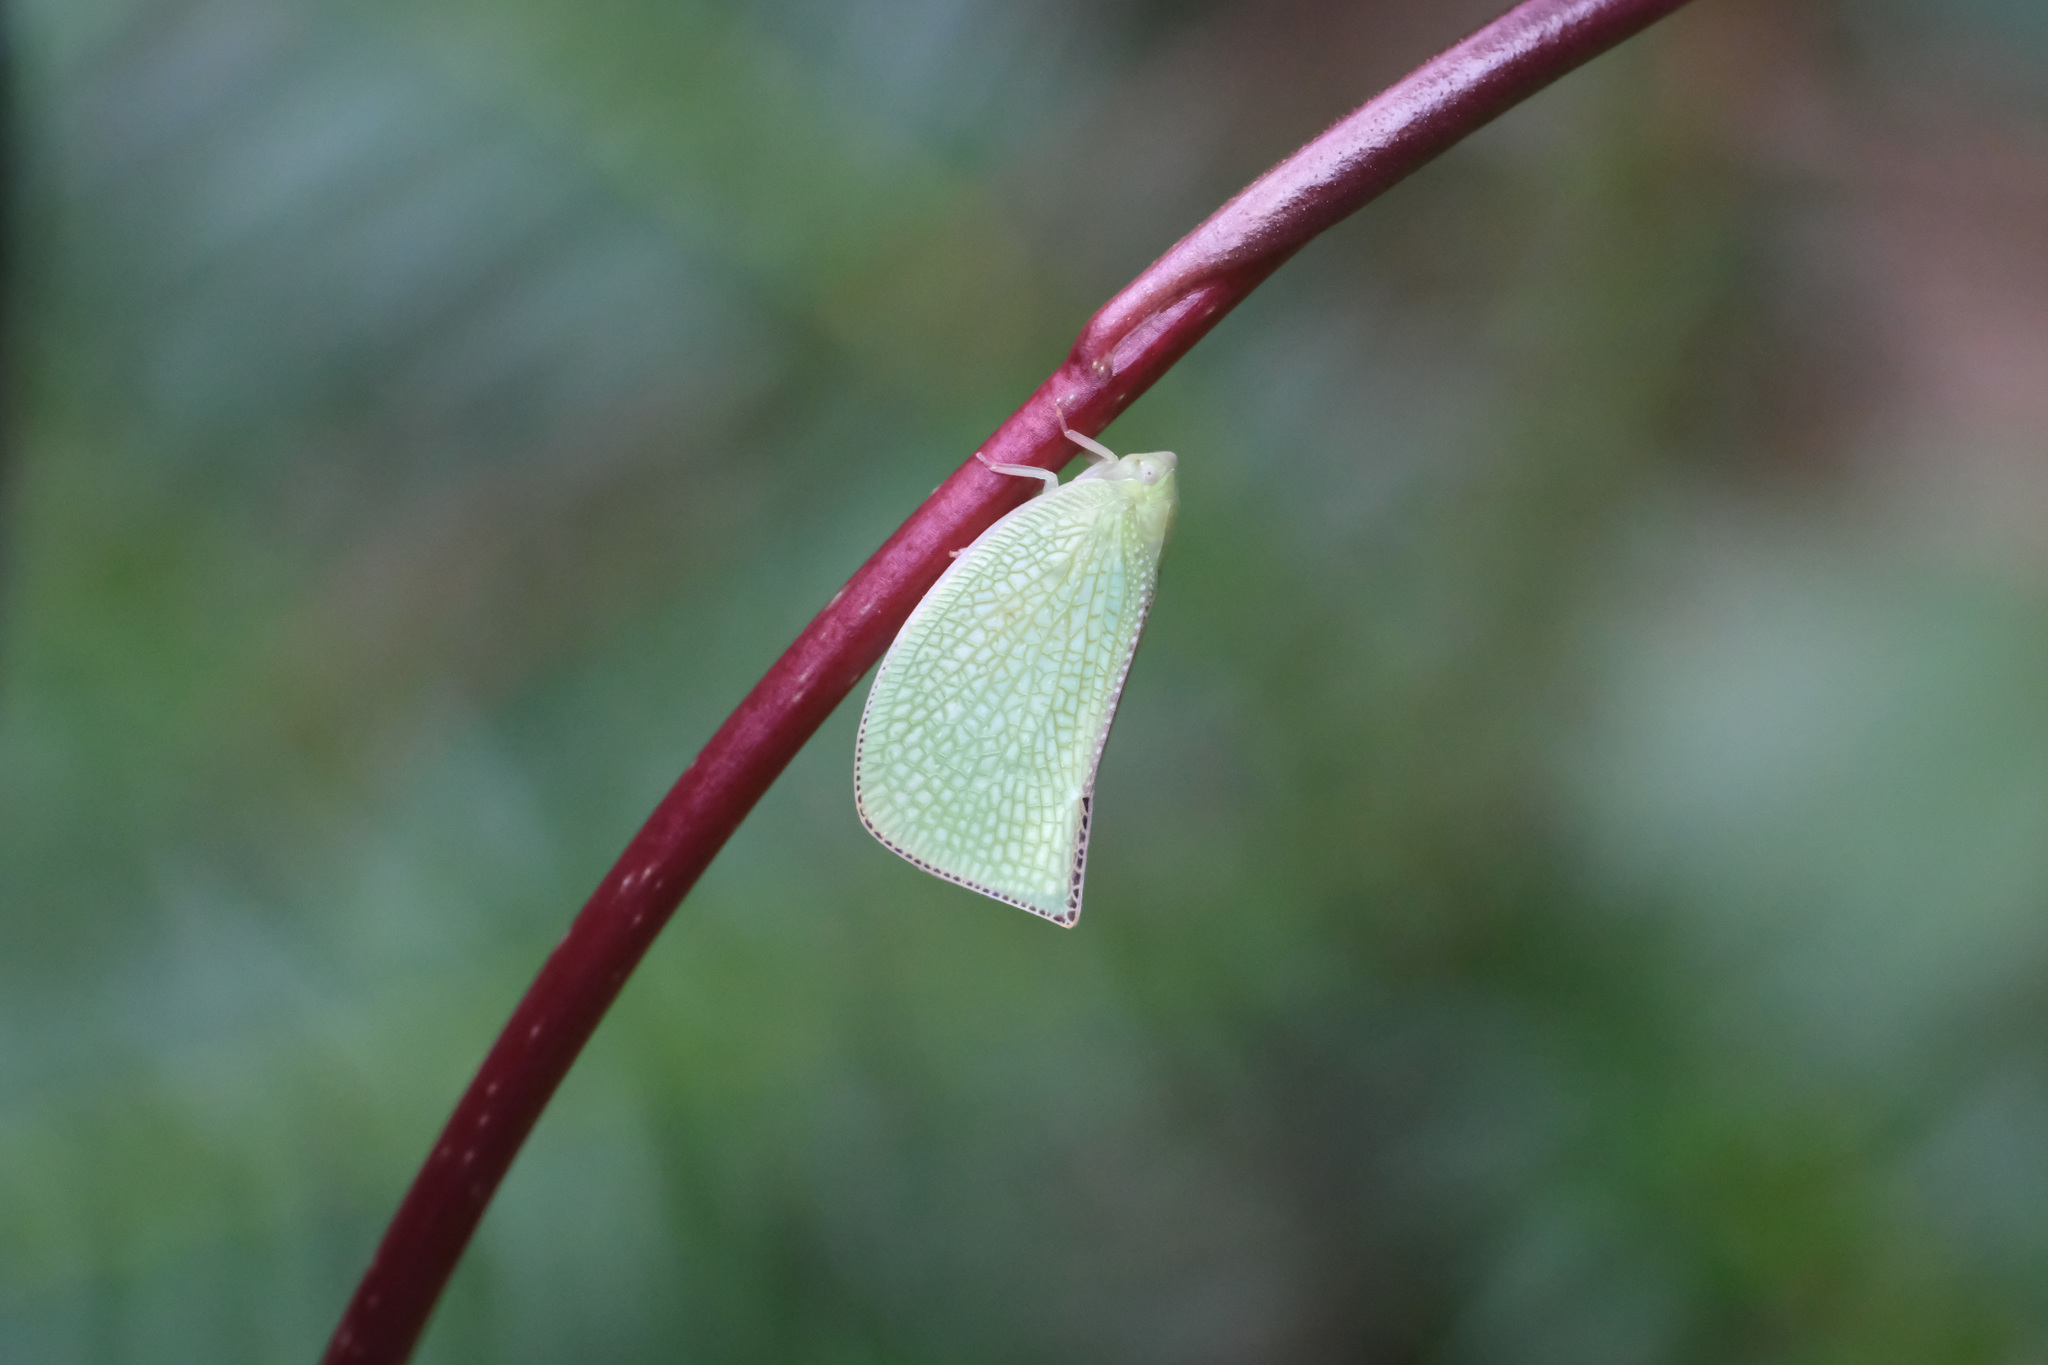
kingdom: Animalia
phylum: Arthropoda
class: Insecta
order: Hemiptera
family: Flatidae
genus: Geisha
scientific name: Geisha distinctissima
